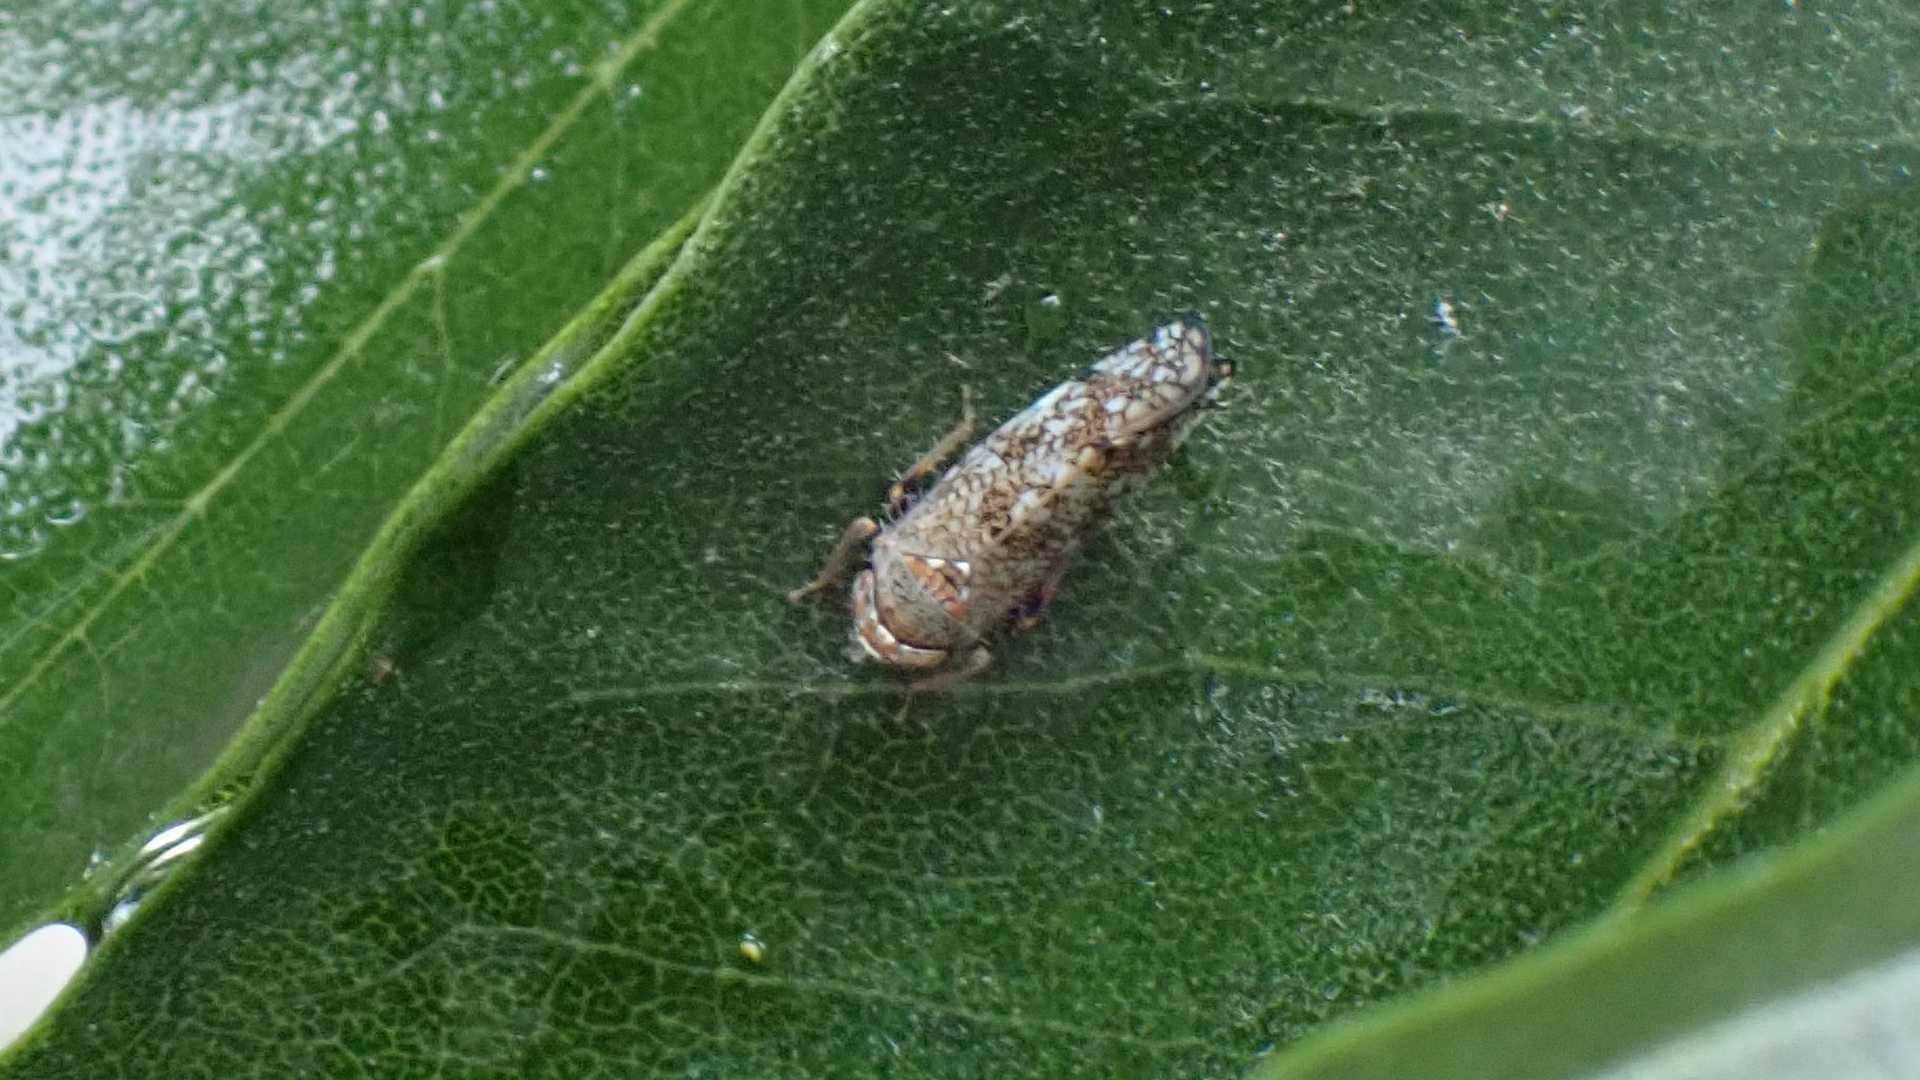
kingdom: Animalia
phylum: Arthropoda
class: Insecta
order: Hemiptera
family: Cicadellidae
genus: Orientus
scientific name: Orientus ishidae
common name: Japanese leafhopper
